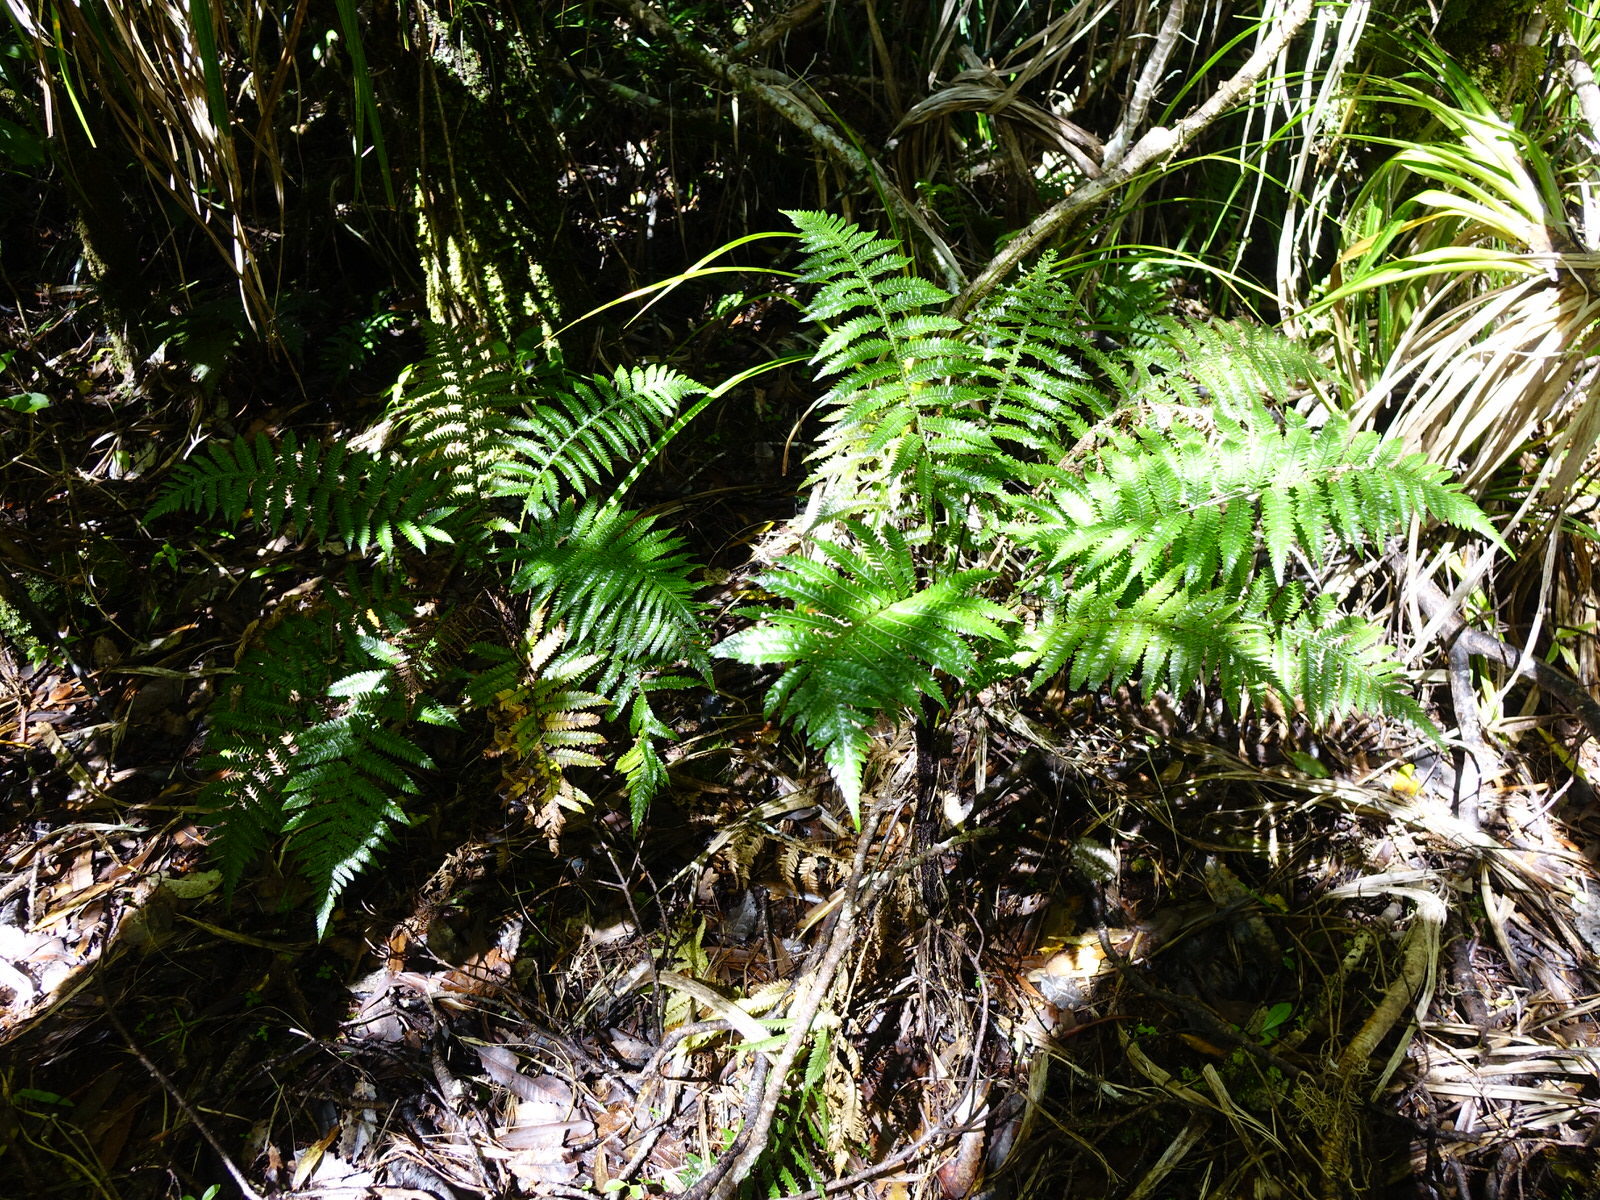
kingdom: Plantae
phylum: Tracheophyta
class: Polypodiopsida
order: Polypodiales
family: Blechnaceae
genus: Diploblechnum
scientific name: Diploblechnum fraseri
